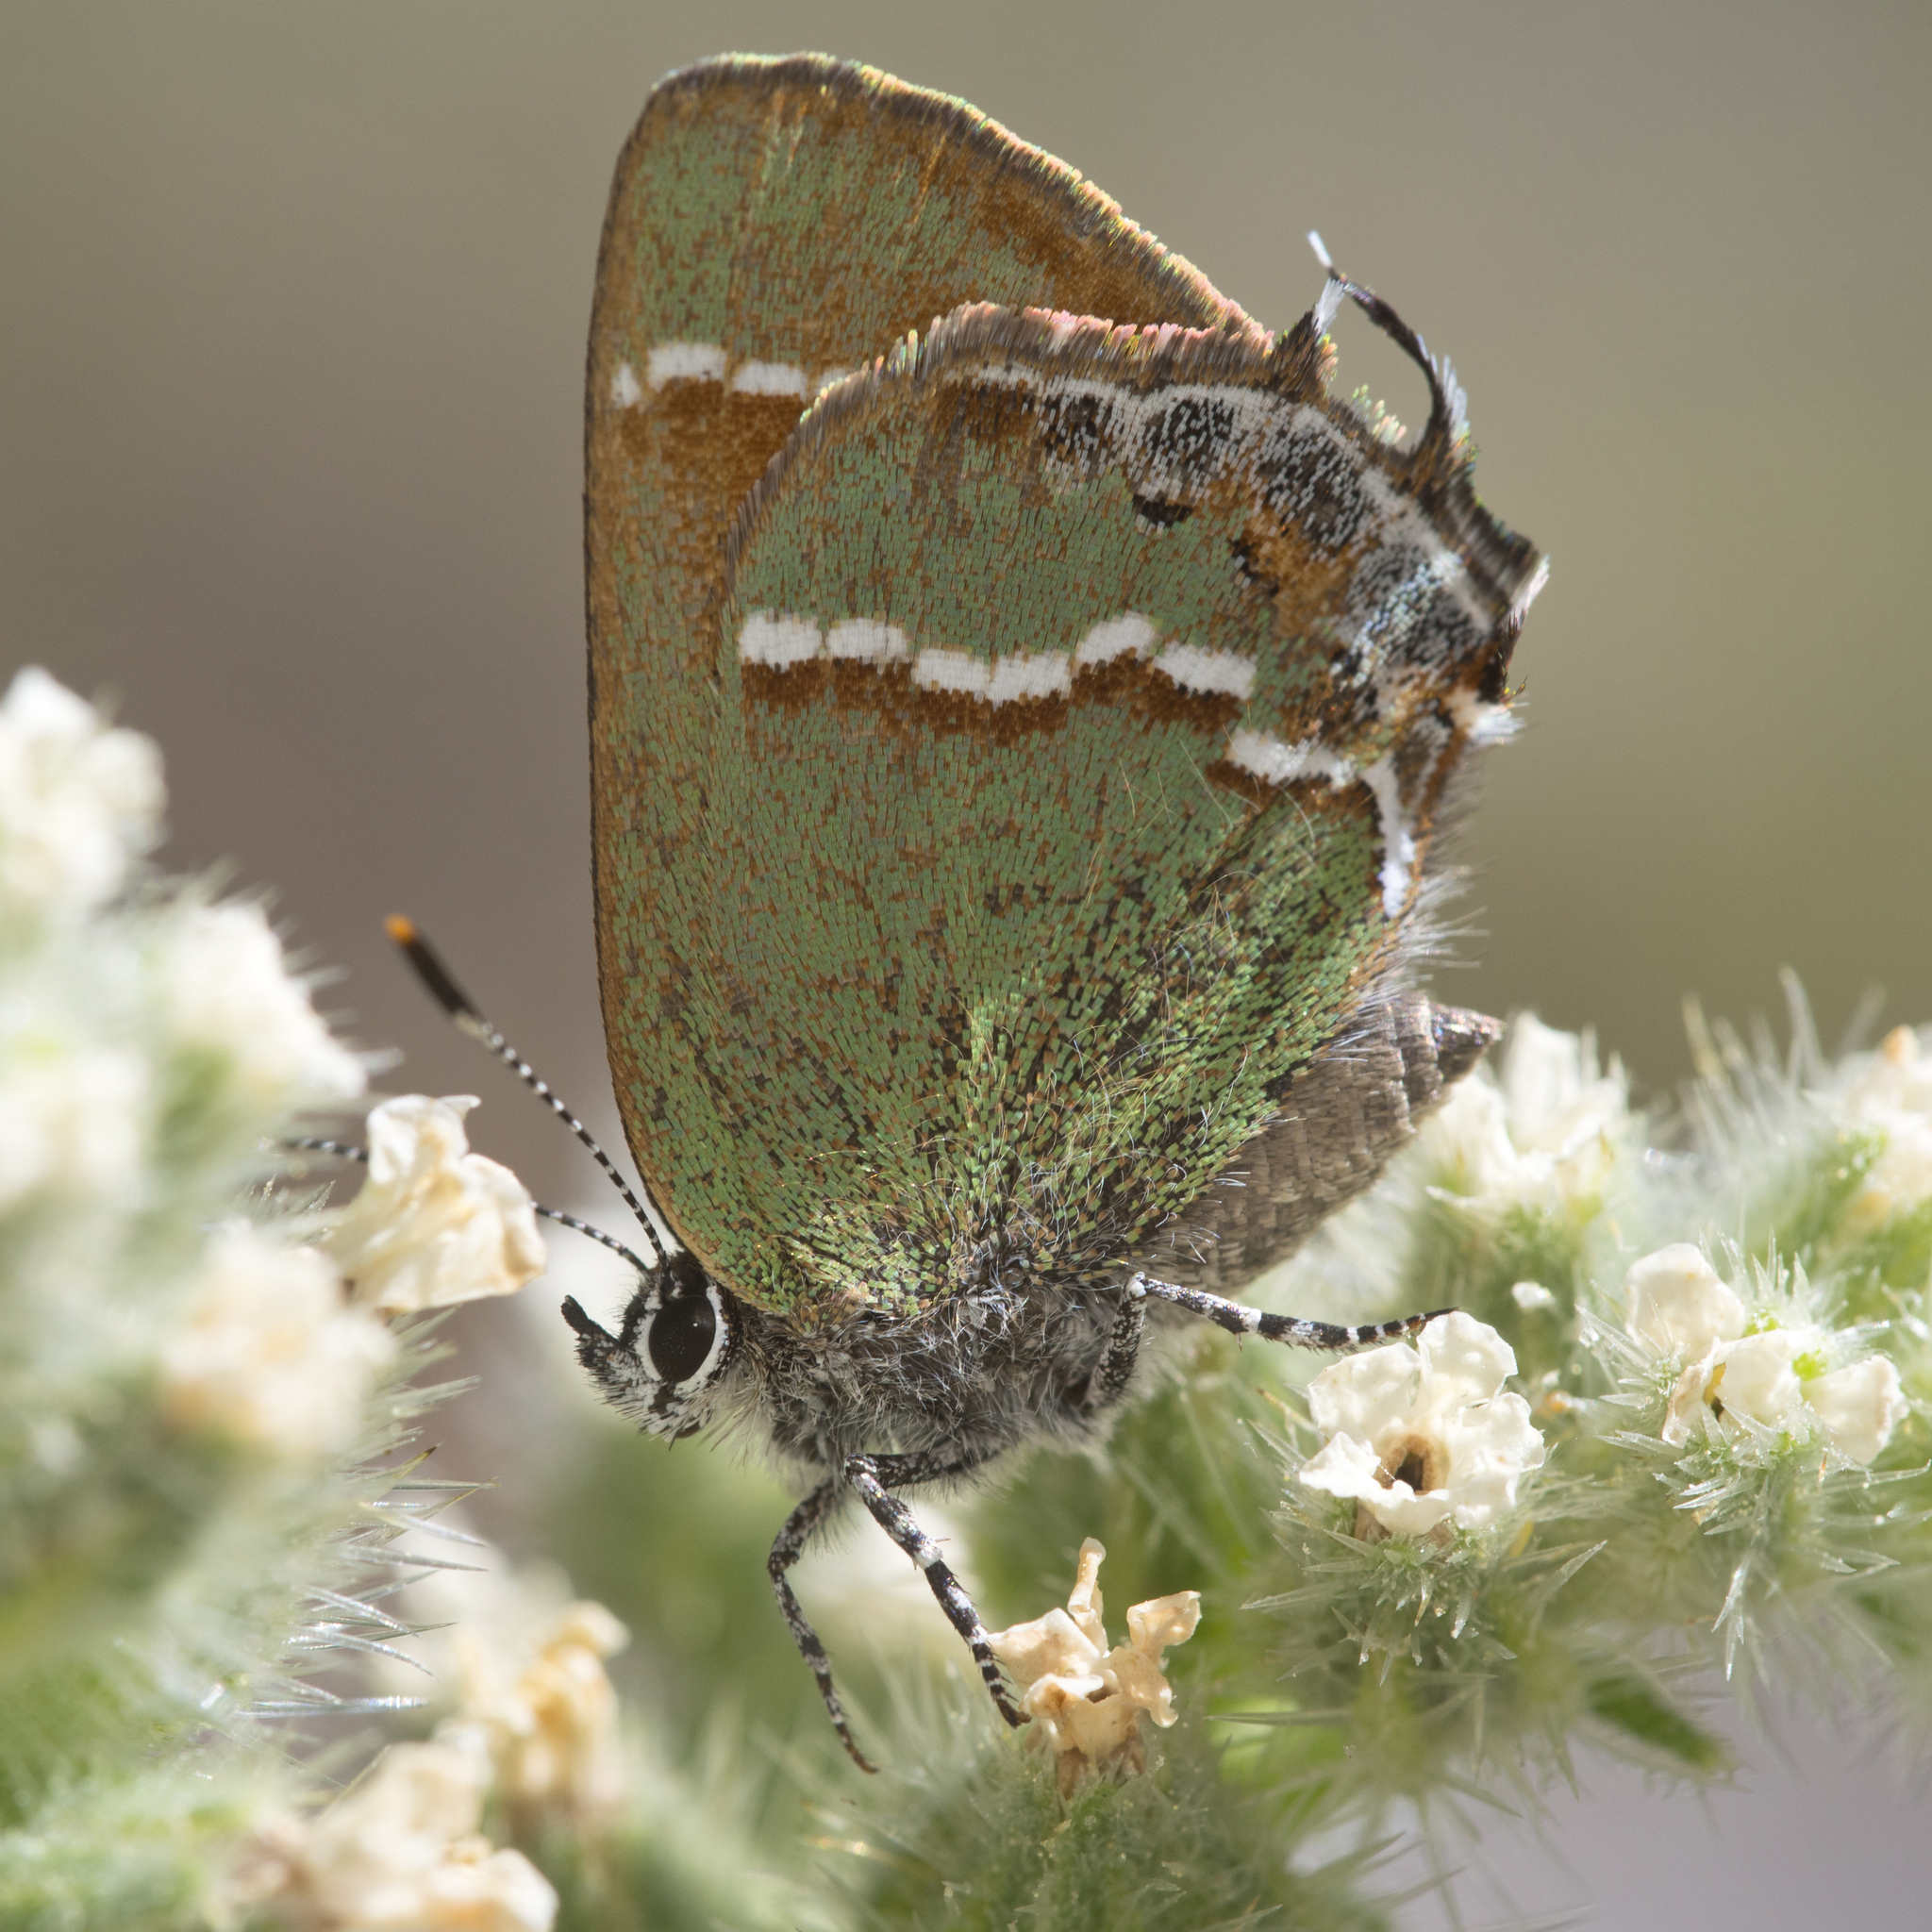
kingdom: Animalia
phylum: Arthropoda
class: Insecta
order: Lepidoptera
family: Lycaenidae
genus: Mitoura
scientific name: Mitoura siva
